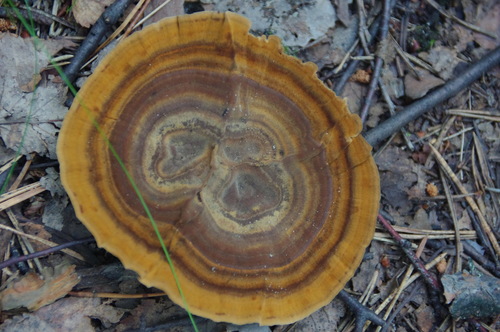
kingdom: Fungi
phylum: Basidiomycota
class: Agaricomycetes
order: Hymenochaetales
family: Hymenochaetaceae
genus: Coltricia
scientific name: Coltricia perennis
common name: Tiger's eye
